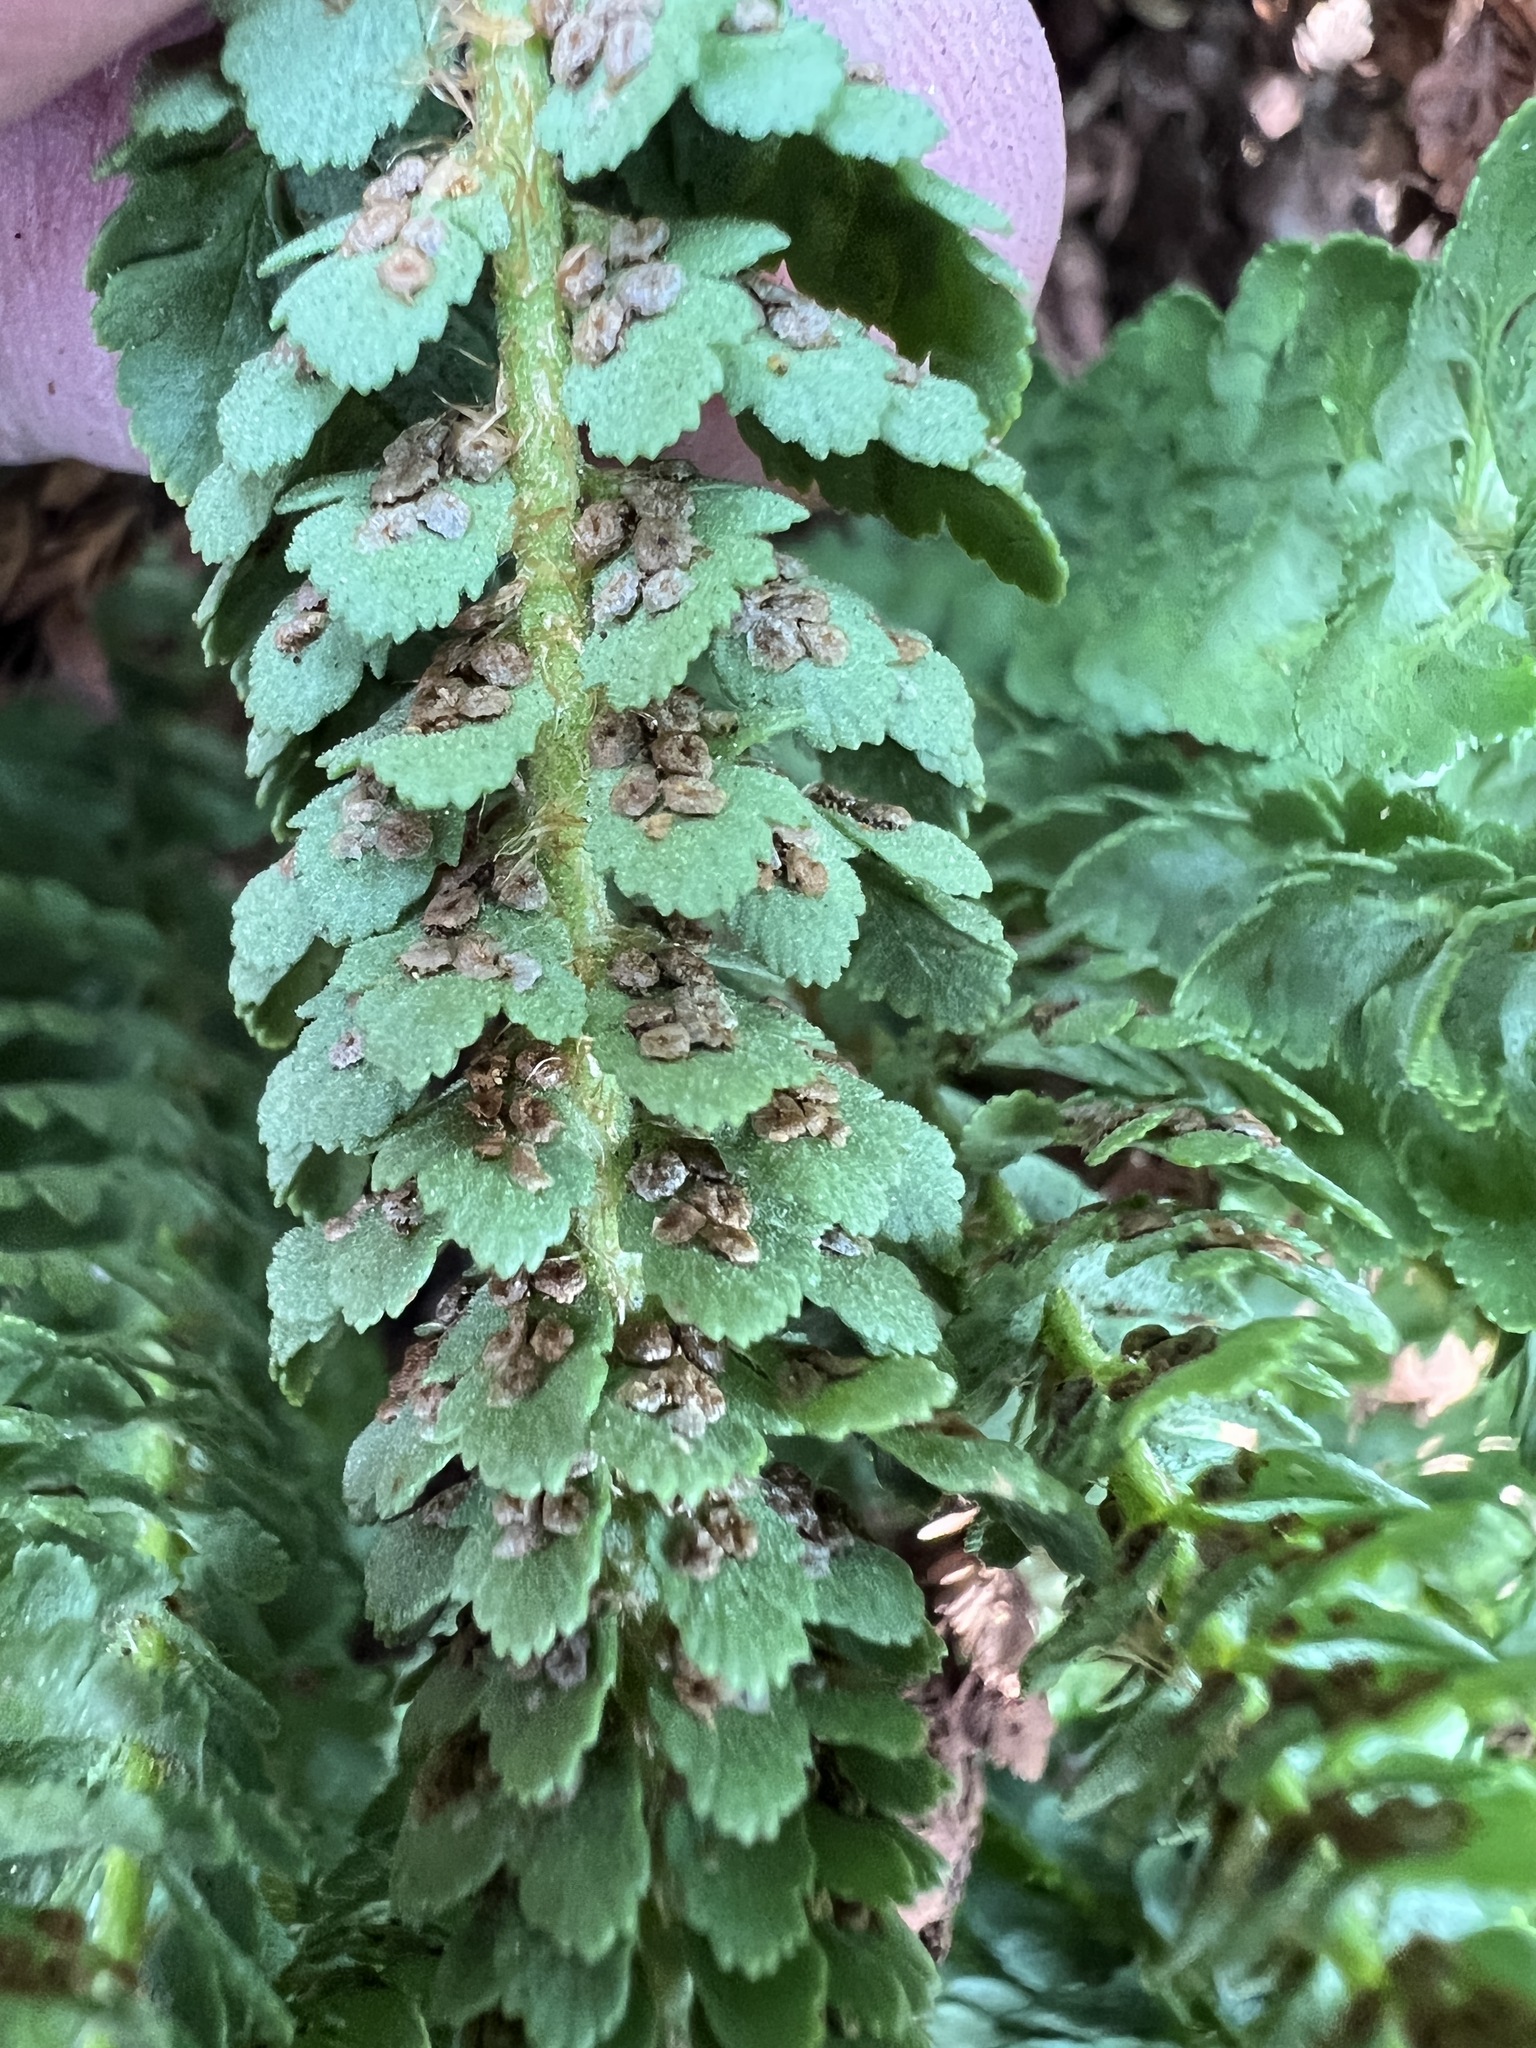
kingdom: Plantae
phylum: Tracheophyta
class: Polypodiopsida
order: Polypodiales
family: Dryopteridaceae
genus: Polystichum
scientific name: Polystichum lemmonii
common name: Lemmon's holly fern
